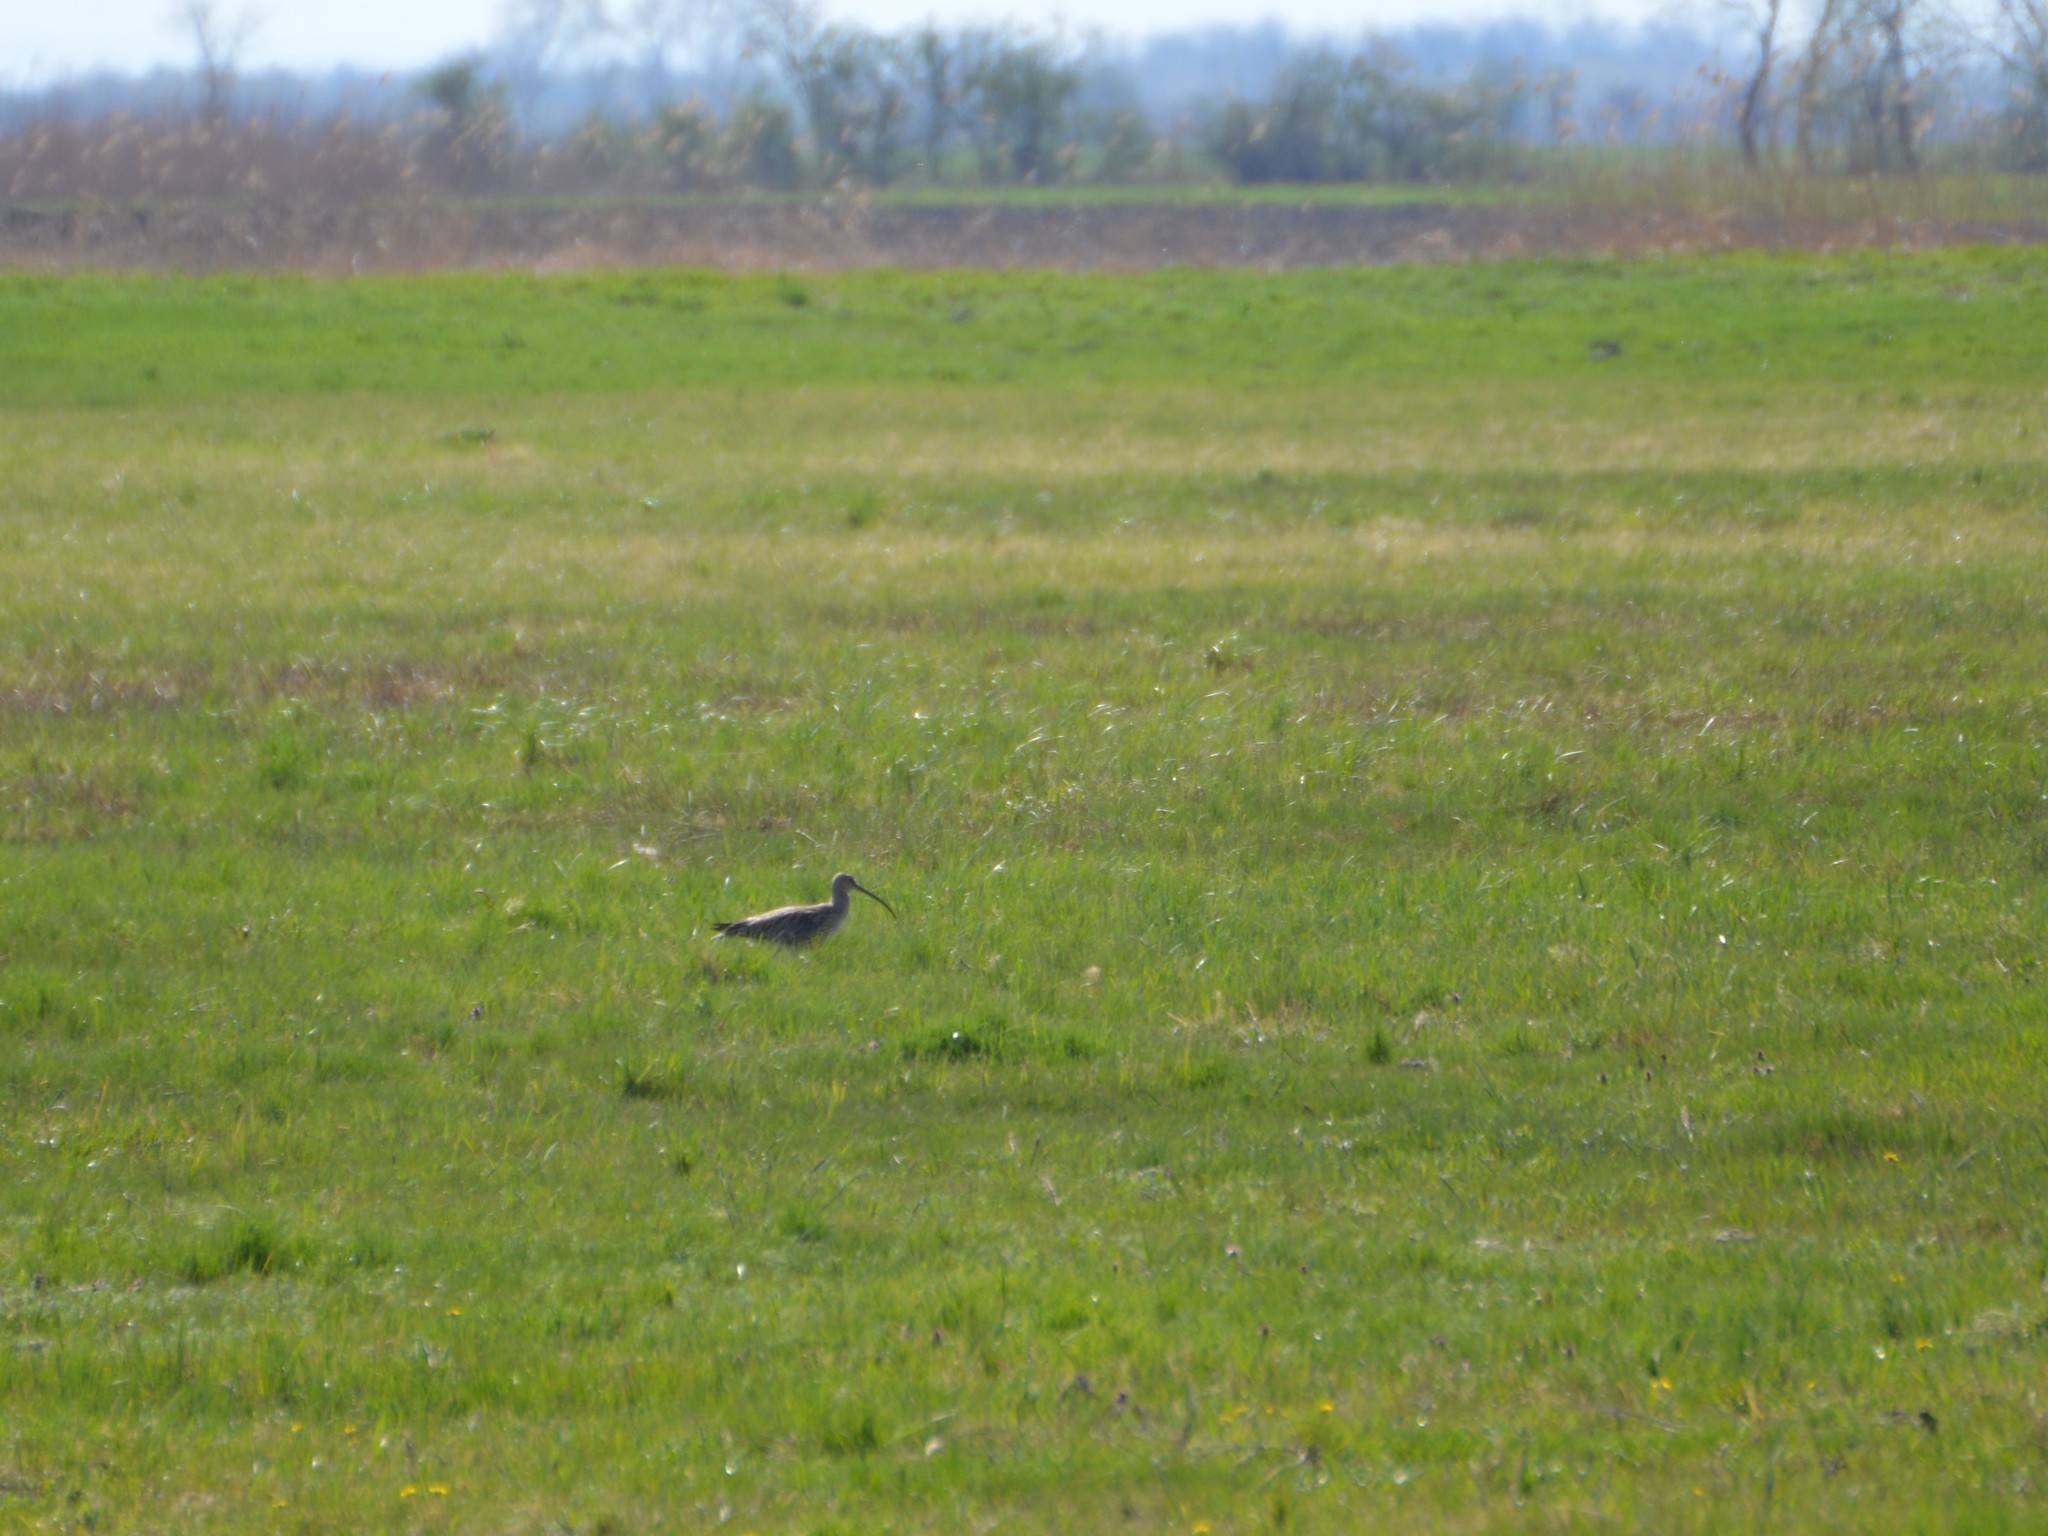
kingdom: Animalia
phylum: Chordata
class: Aves
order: Charadriiformes
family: Scolopacidae
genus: Numenius
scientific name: Numenius arquata
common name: Eurasian curlew
